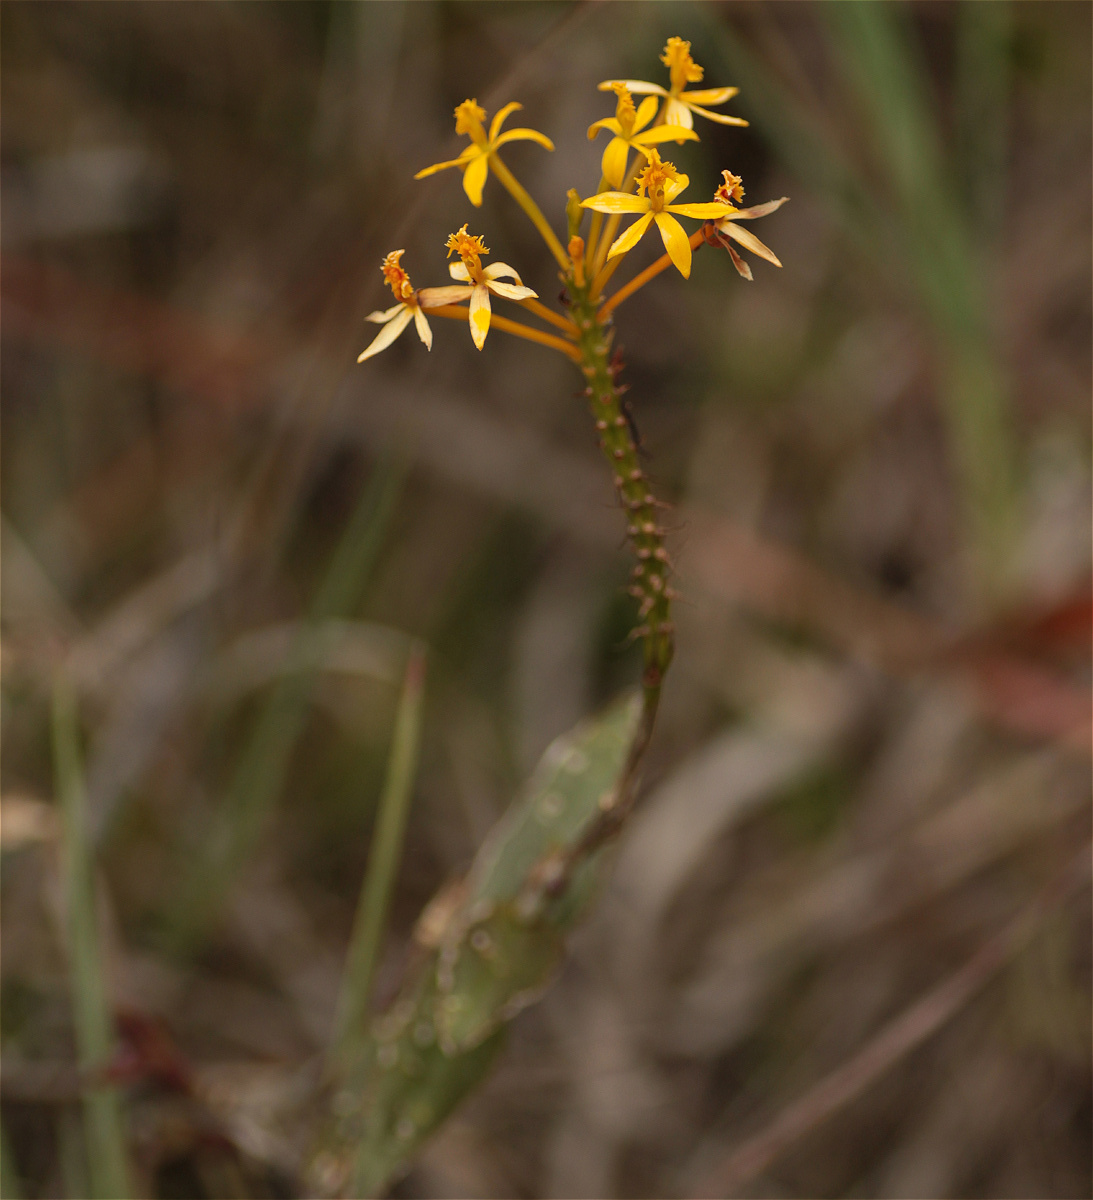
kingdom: Plantae
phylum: Tracheophyta
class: Liliopsida
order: Asparagales
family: Orchidaceae
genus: Epidendrum
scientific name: Epidendrum melinanthum
